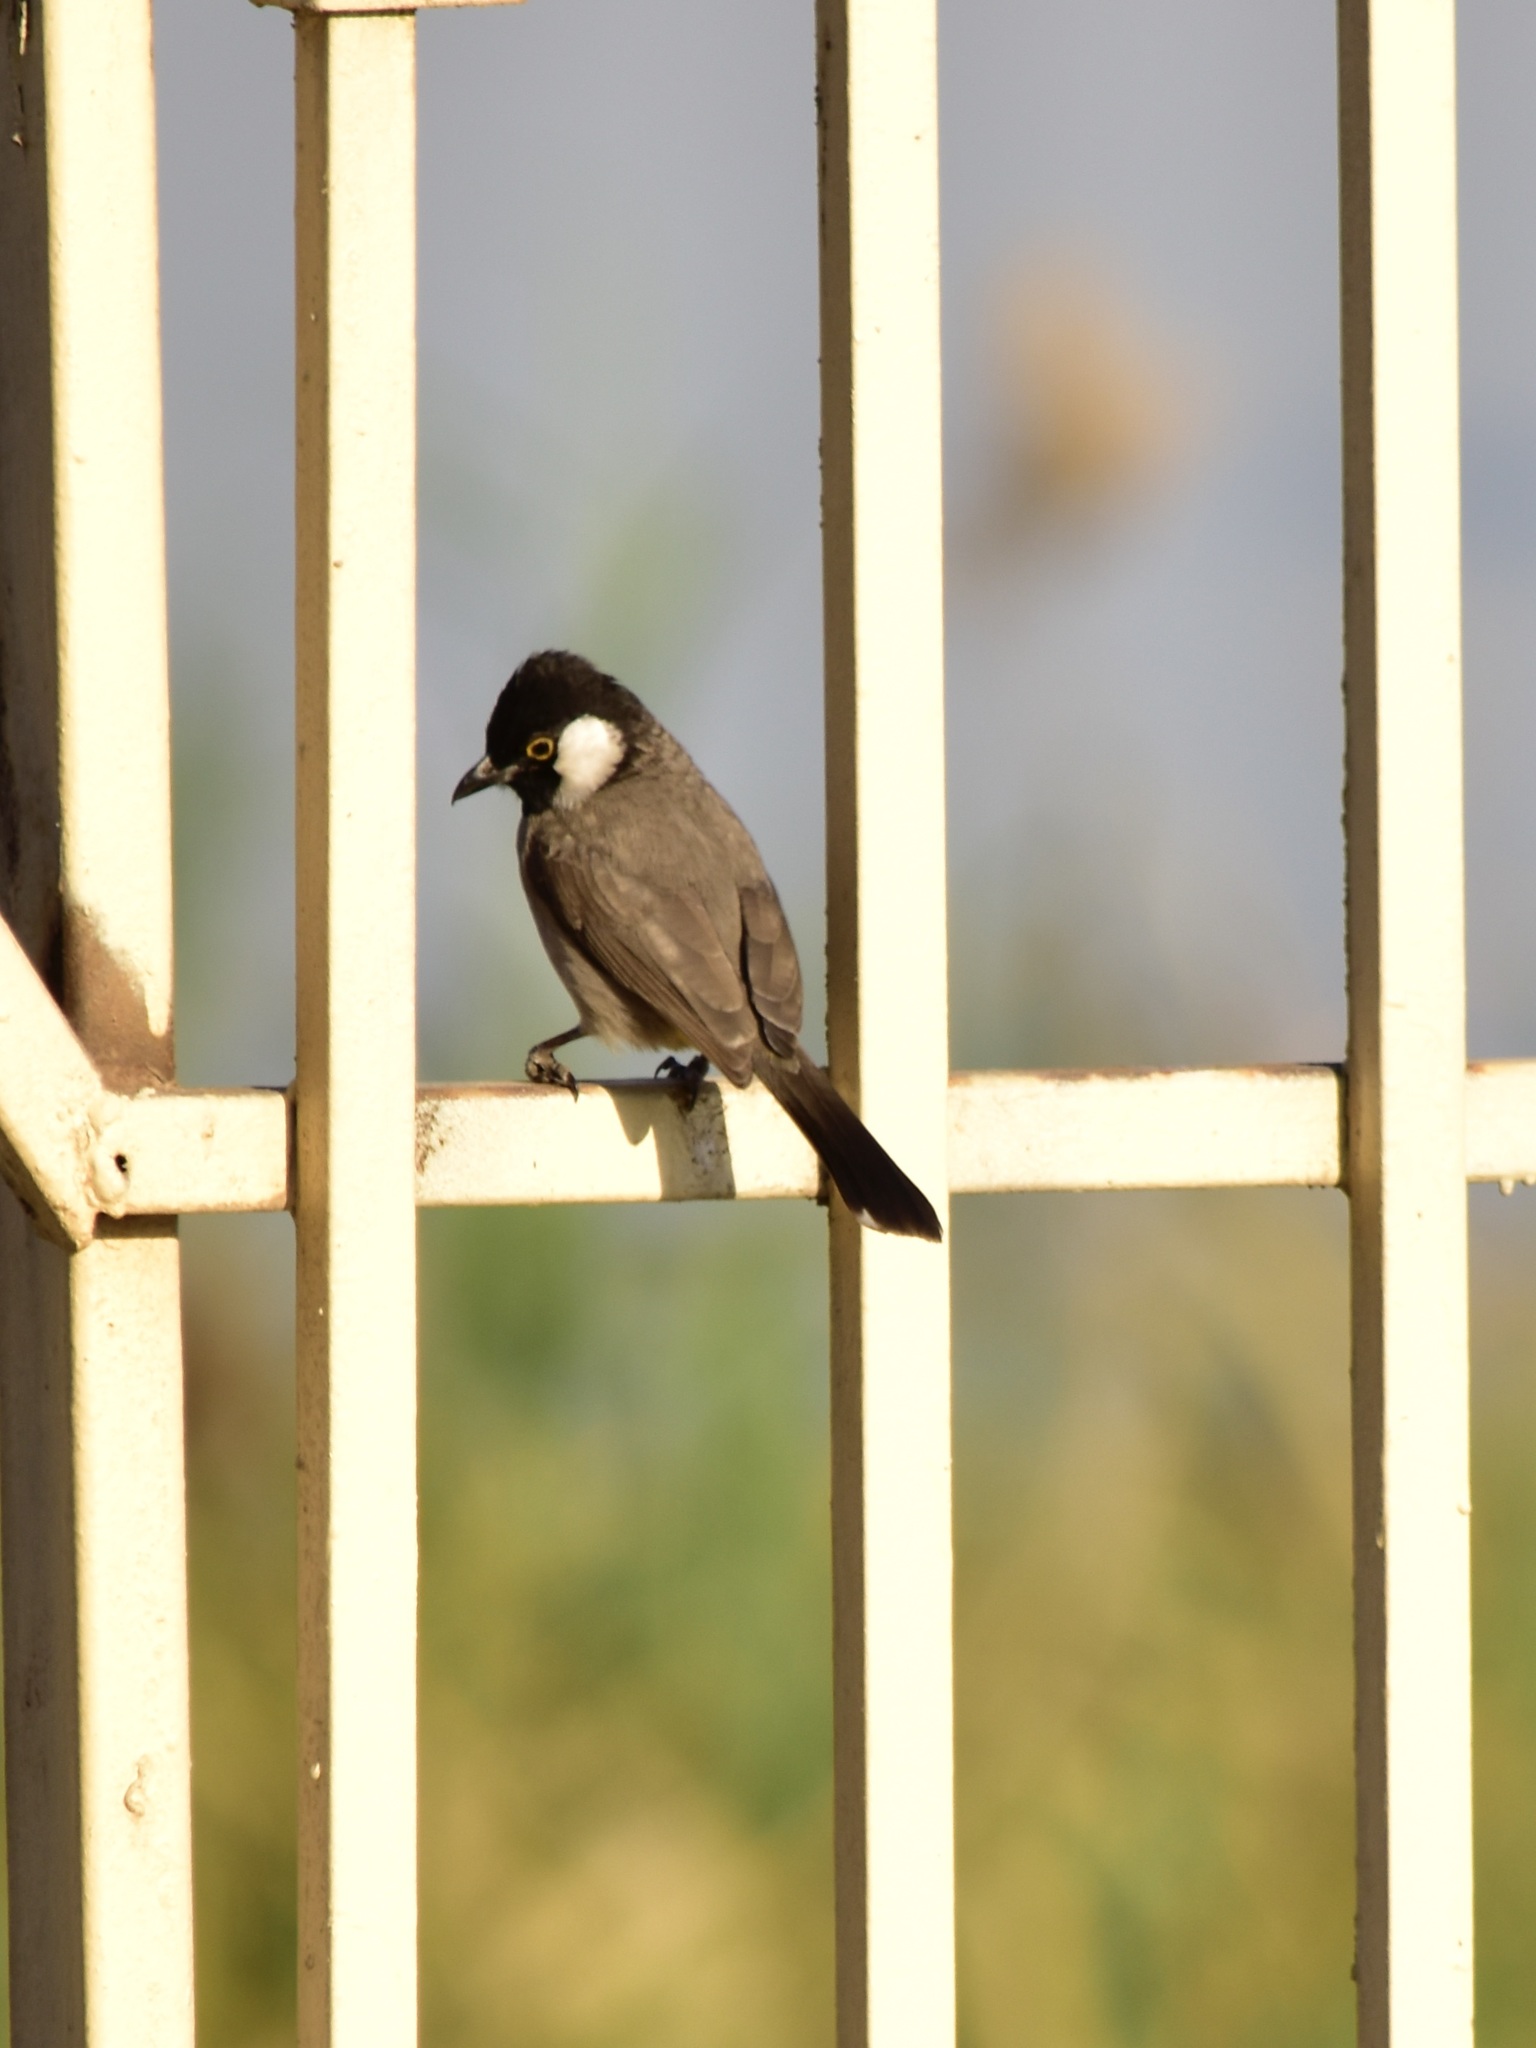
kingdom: Animalia
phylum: Chordata
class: Aves
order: Passeriformes
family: Pycnonotidae
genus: Pycnonotus
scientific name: Pycnonotus leucotis
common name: White-eared bulbul
